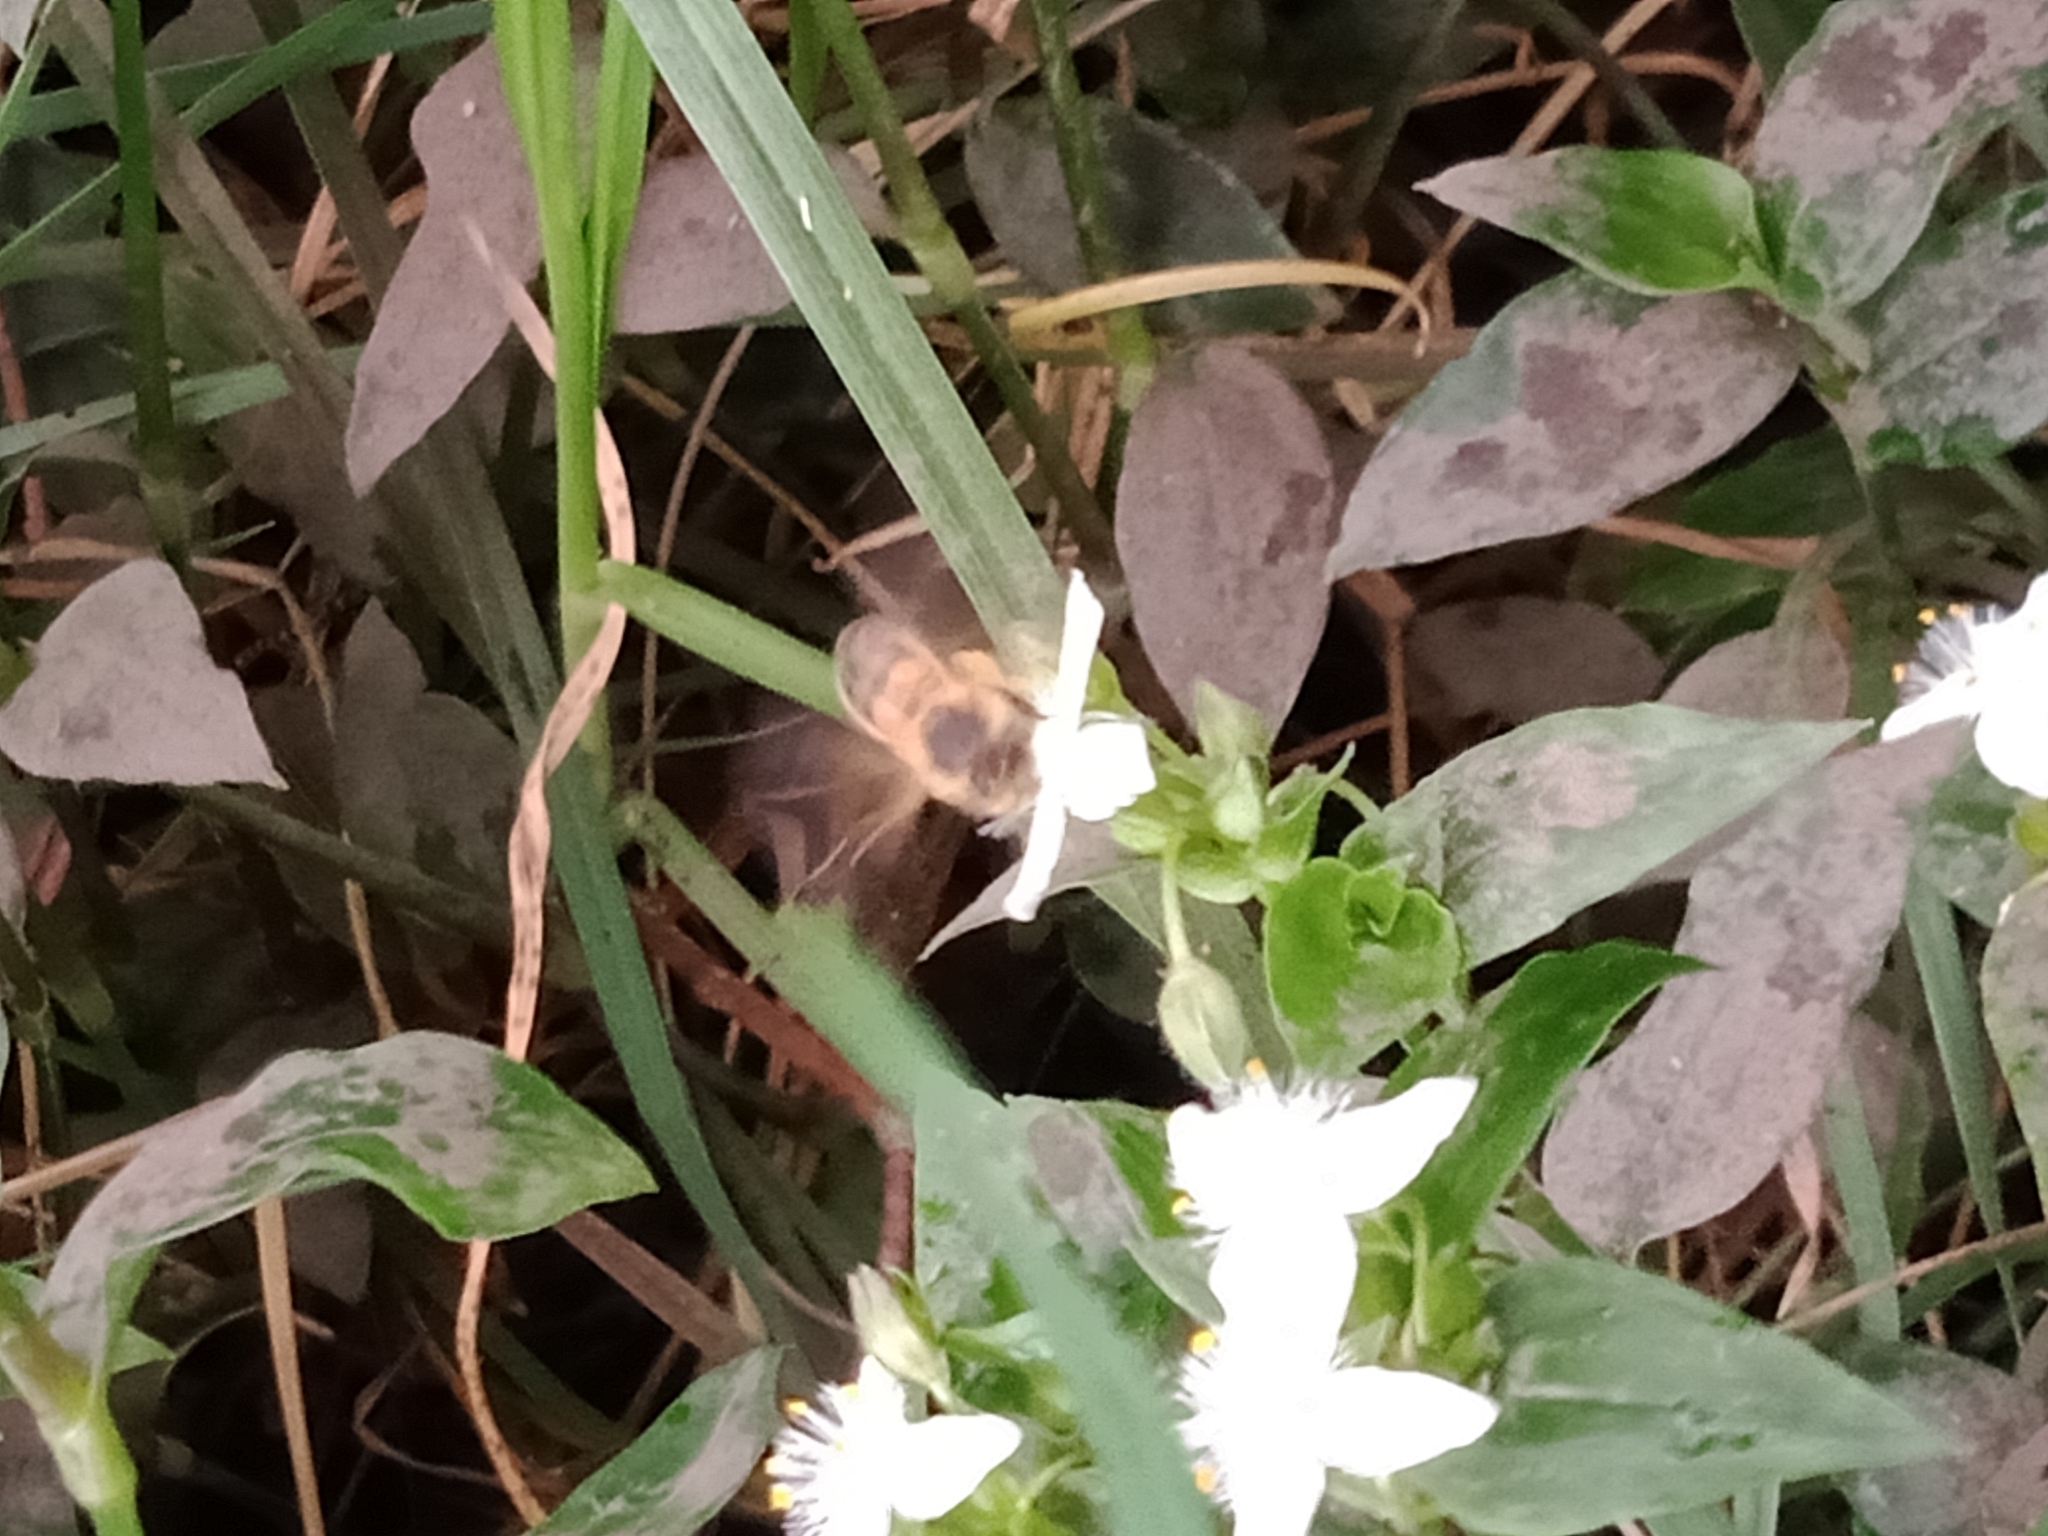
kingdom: Animalia
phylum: Arthropoda
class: Insecta
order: Hymenoptera
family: Apidae
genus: Apis
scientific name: Apis mellifera
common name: Honey bee
